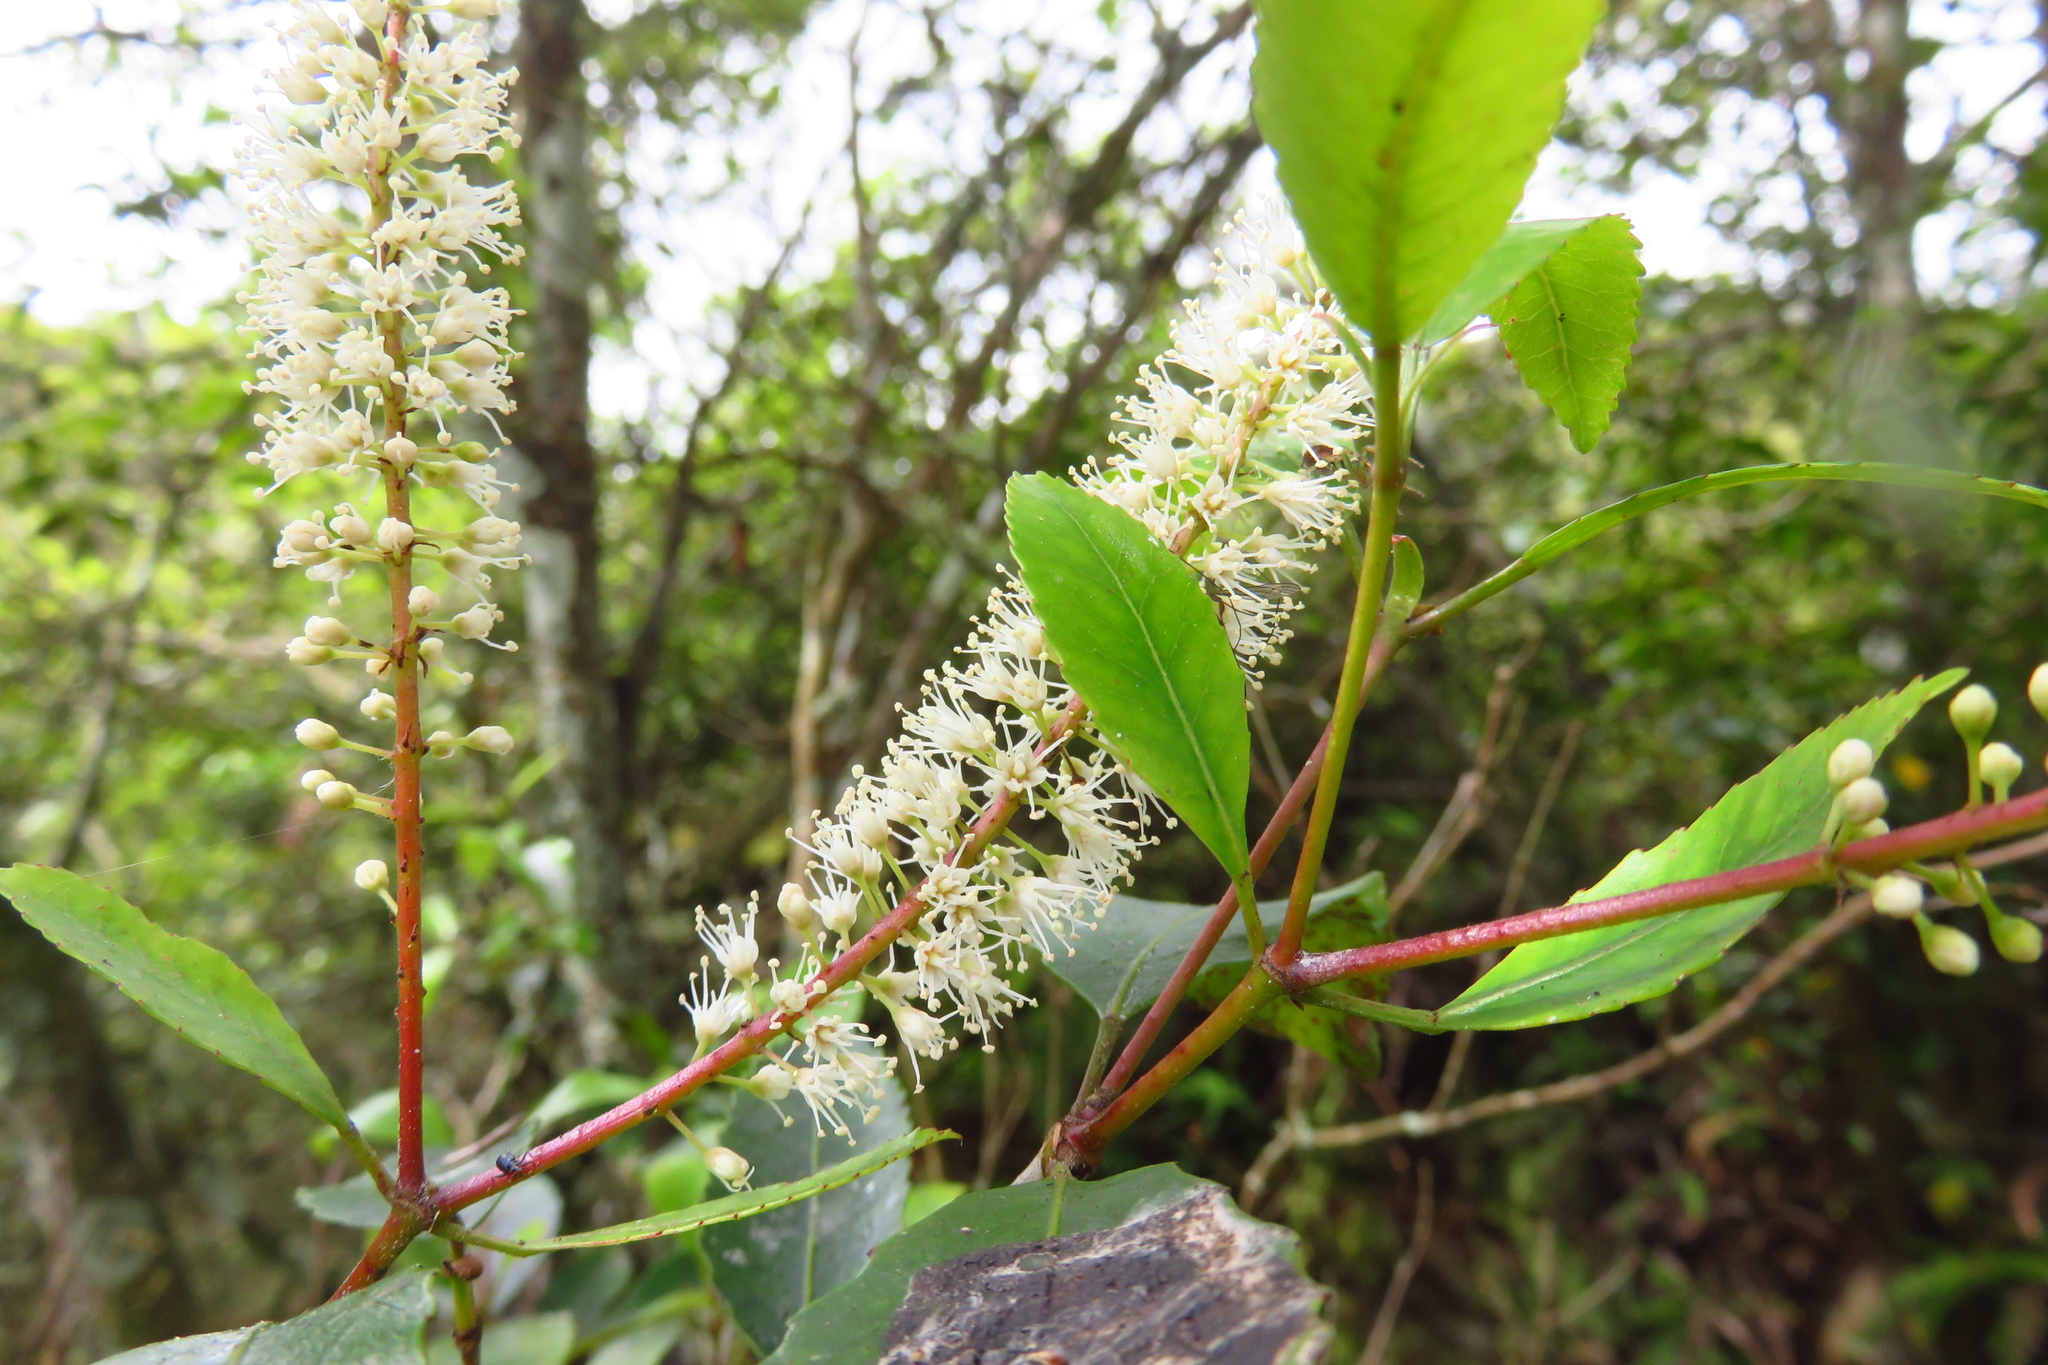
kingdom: Plantae
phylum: Tracheophyta
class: Magnoliopsida
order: Oxalidales
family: Cunoniaceae
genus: Pterophylla
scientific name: Pterophylla racemosa
